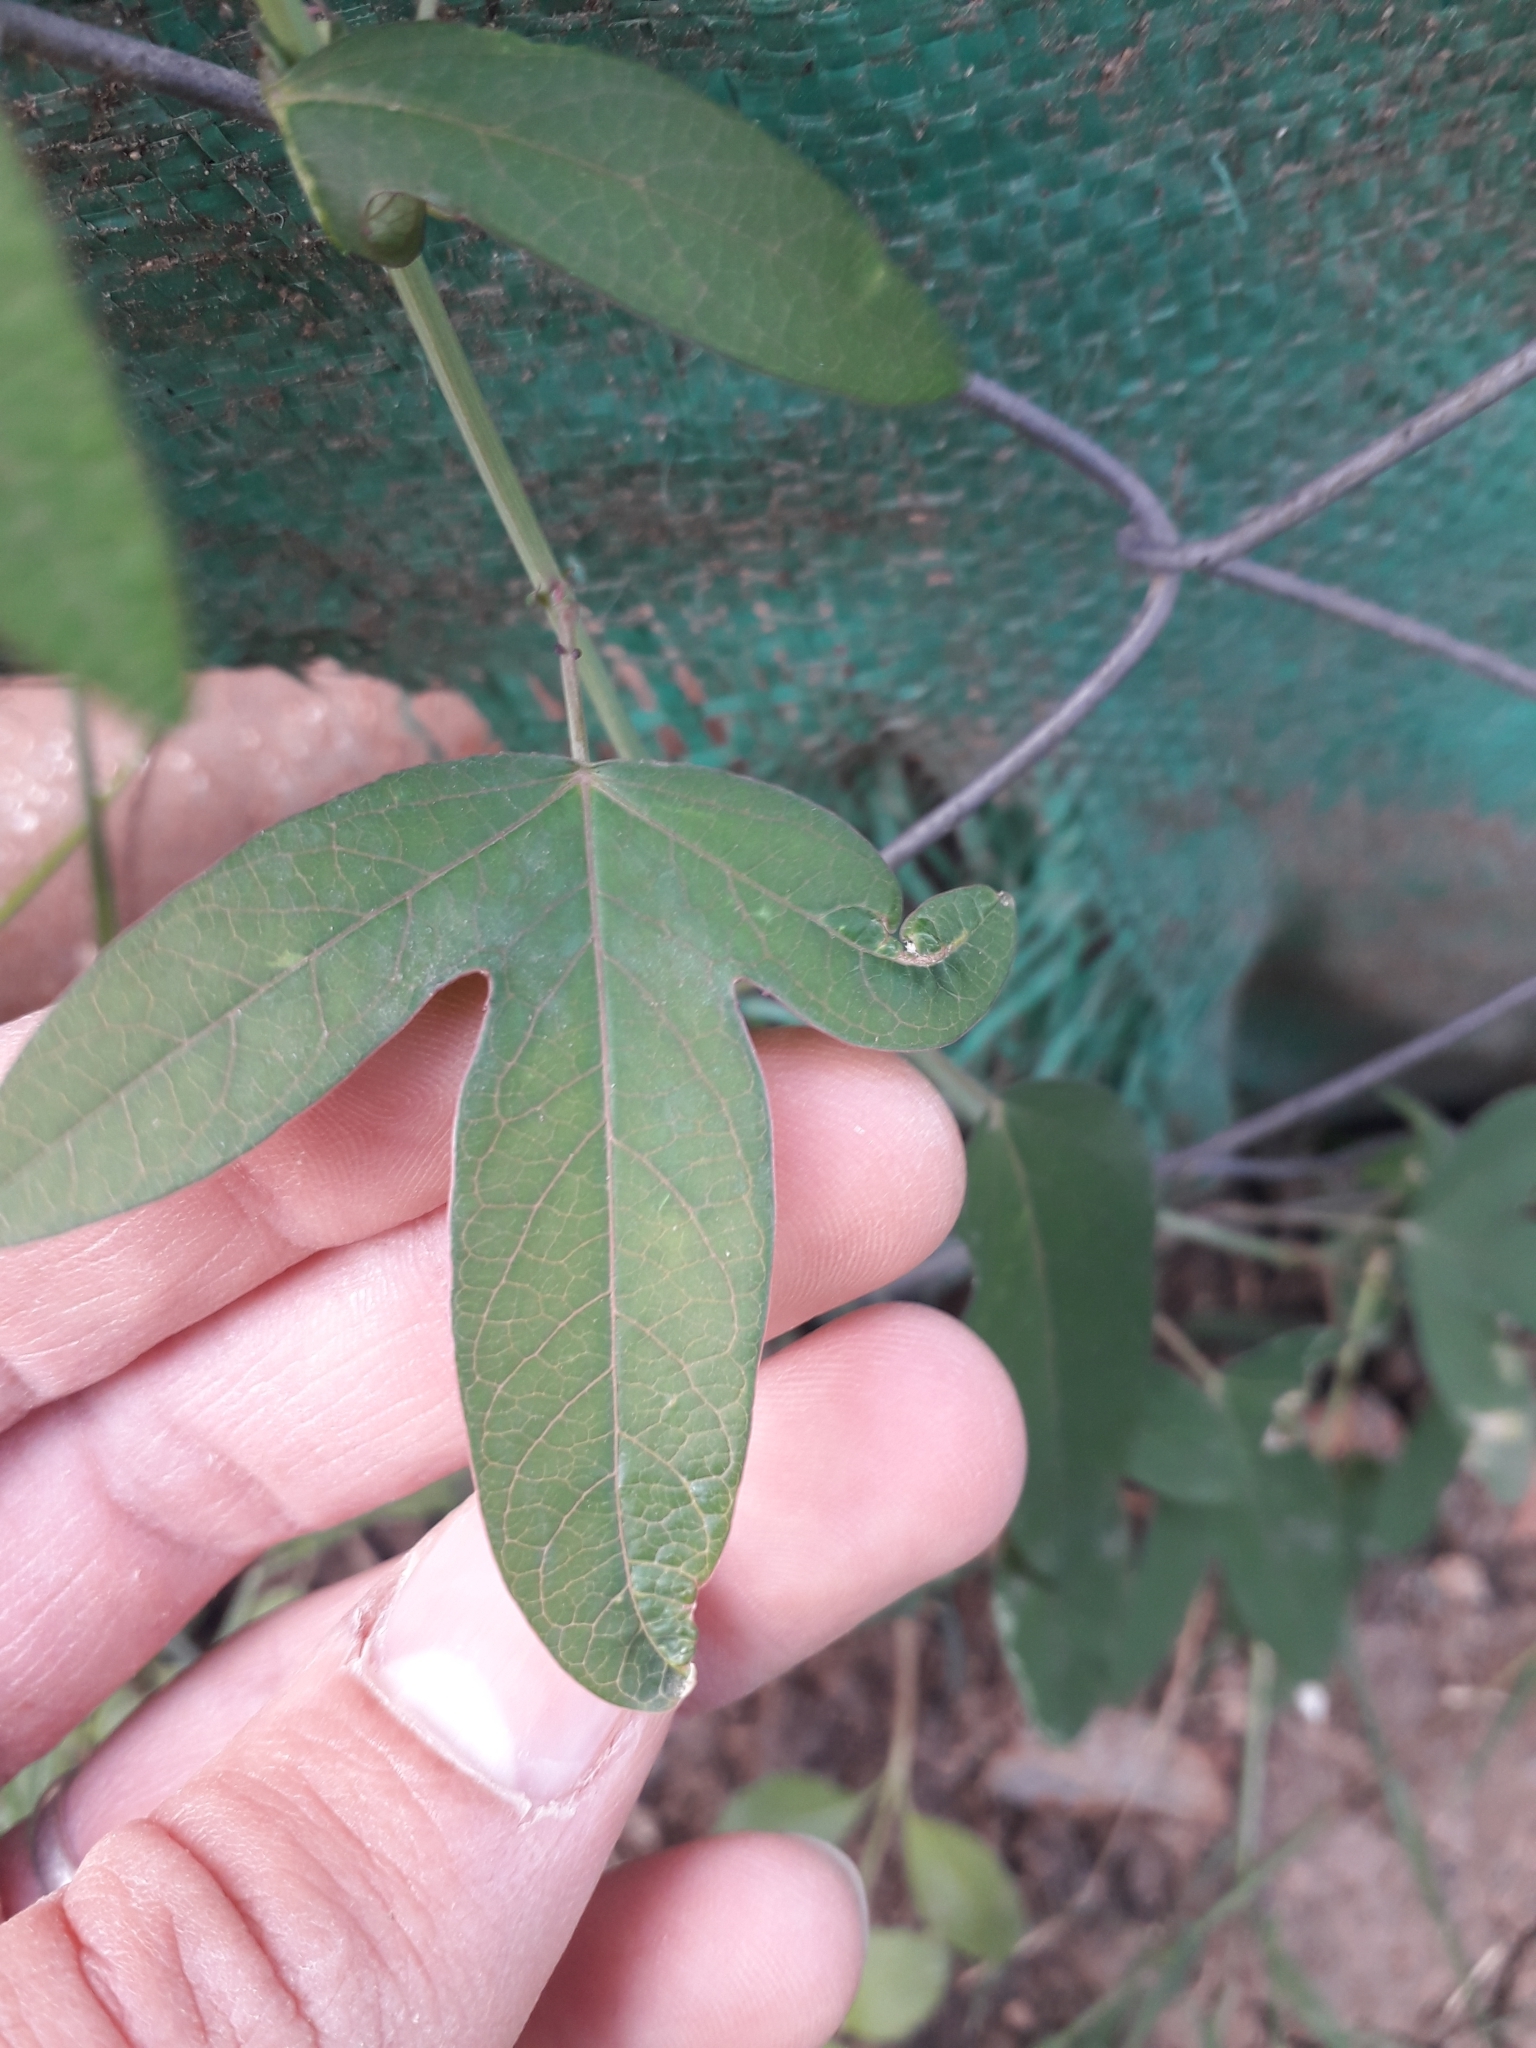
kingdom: Plantae
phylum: Tracheophyta
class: Magnoliopsida
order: Malpighiales
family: Passifloraceae
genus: Passiflora
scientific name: Passiflora caerulea
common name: Blue passionflower
